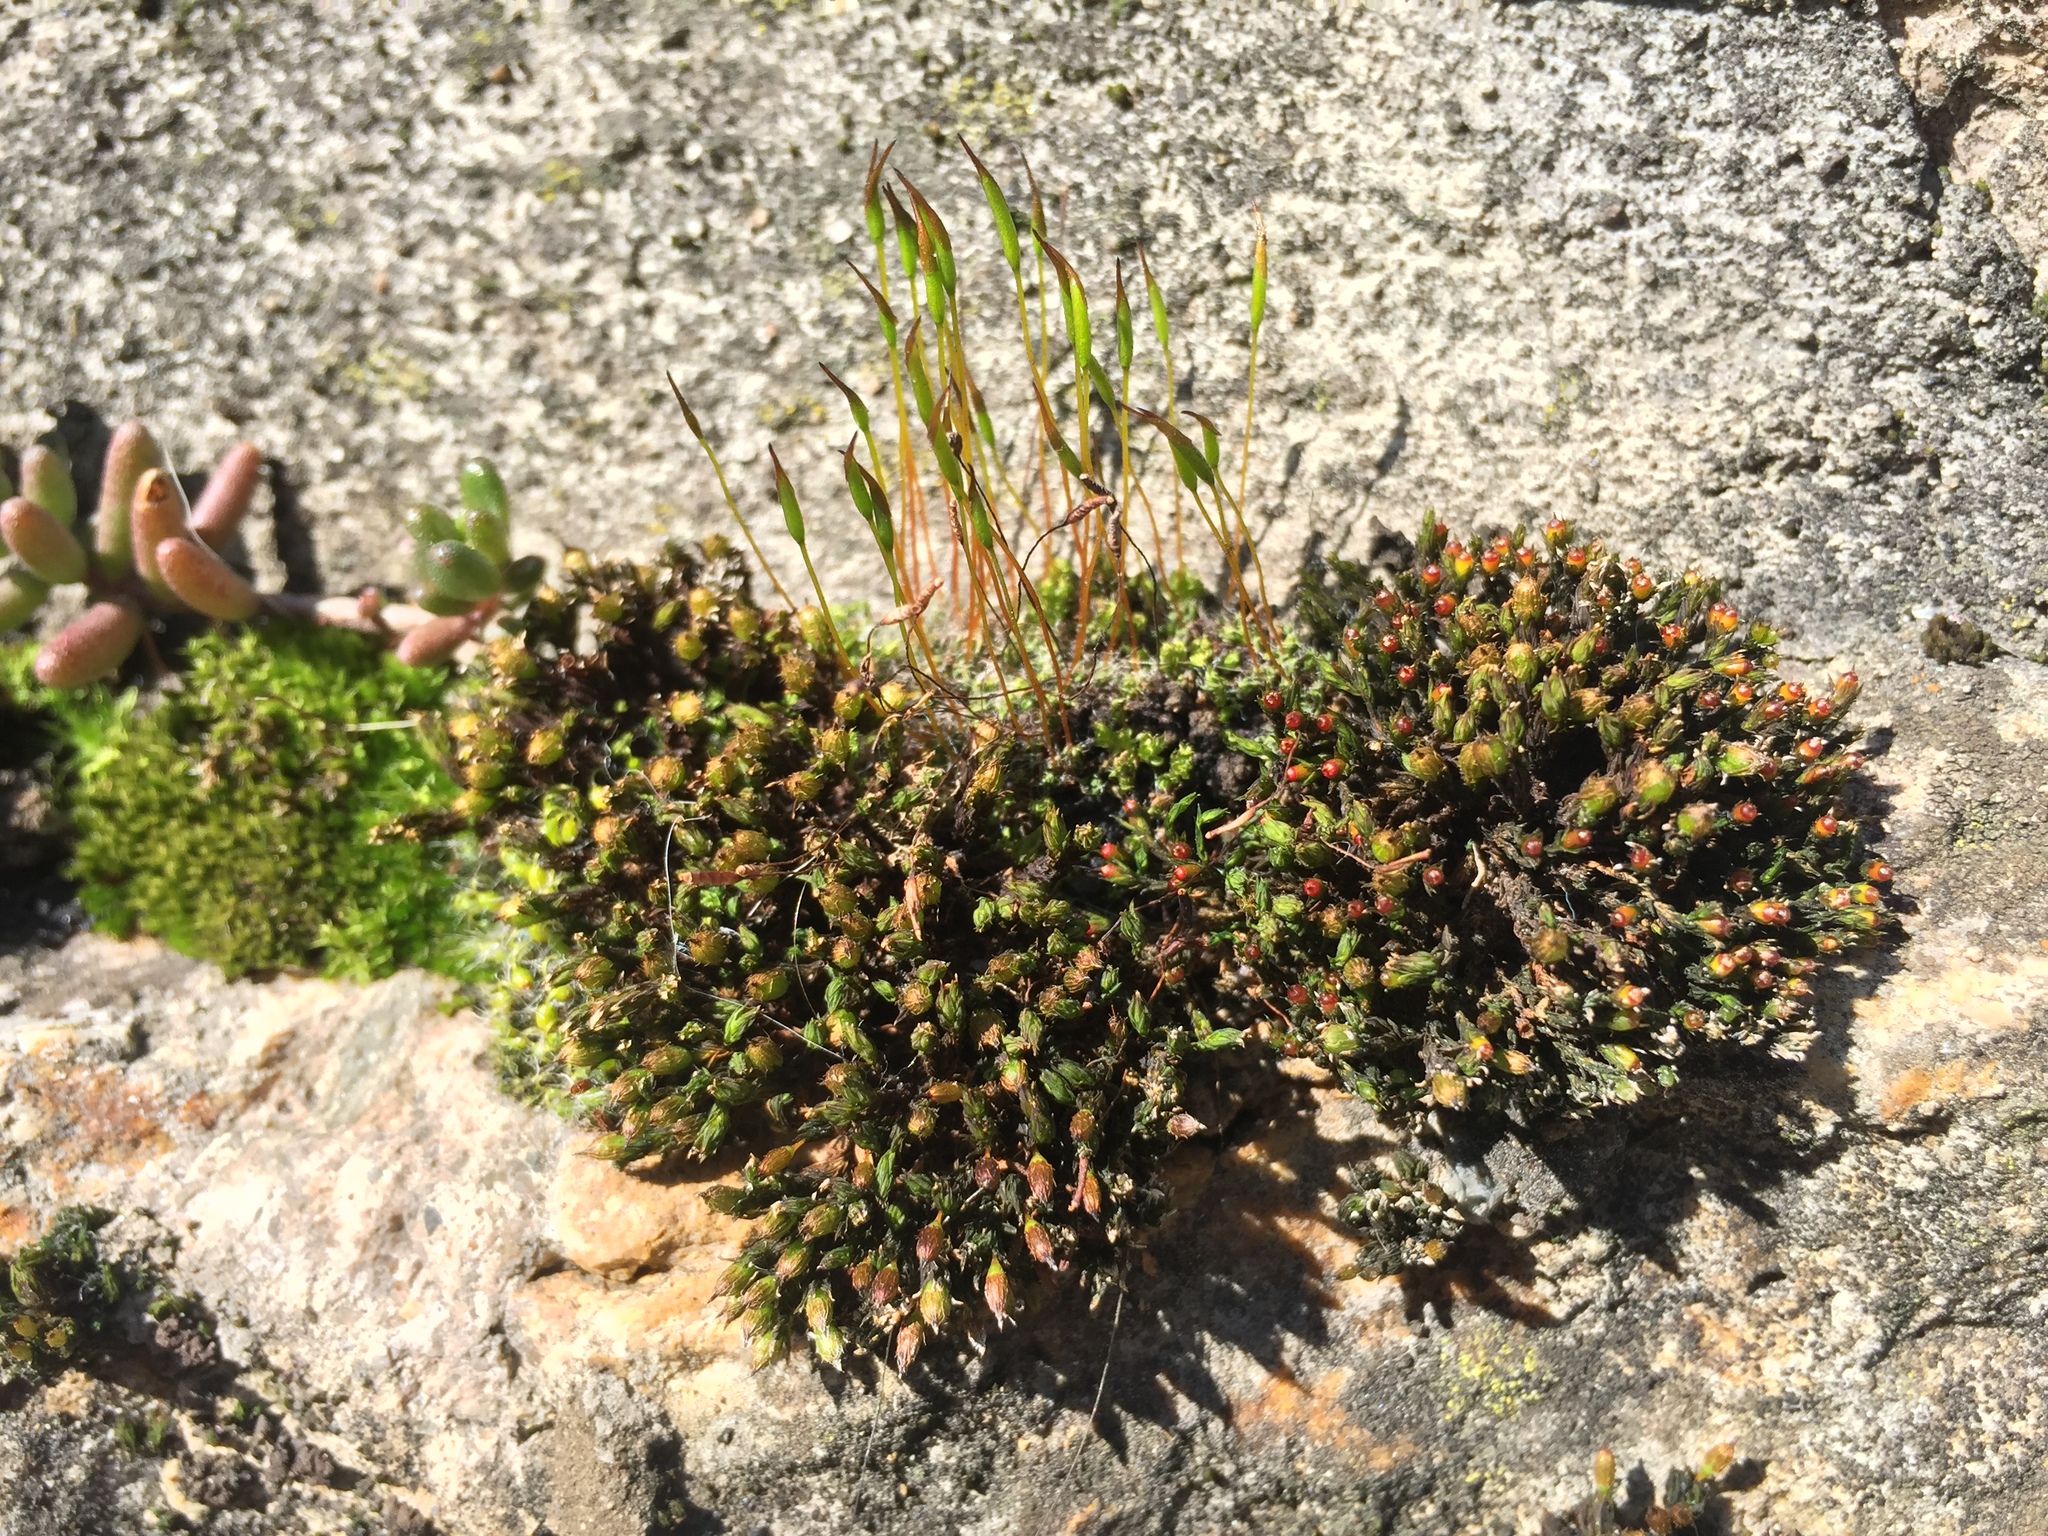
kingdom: Plantae
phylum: Bryophyta
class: Bryopsida
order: Orthotrichales
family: Orthotrichaceae
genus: Orthotrichum
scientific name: Orthotrichum anomalum
